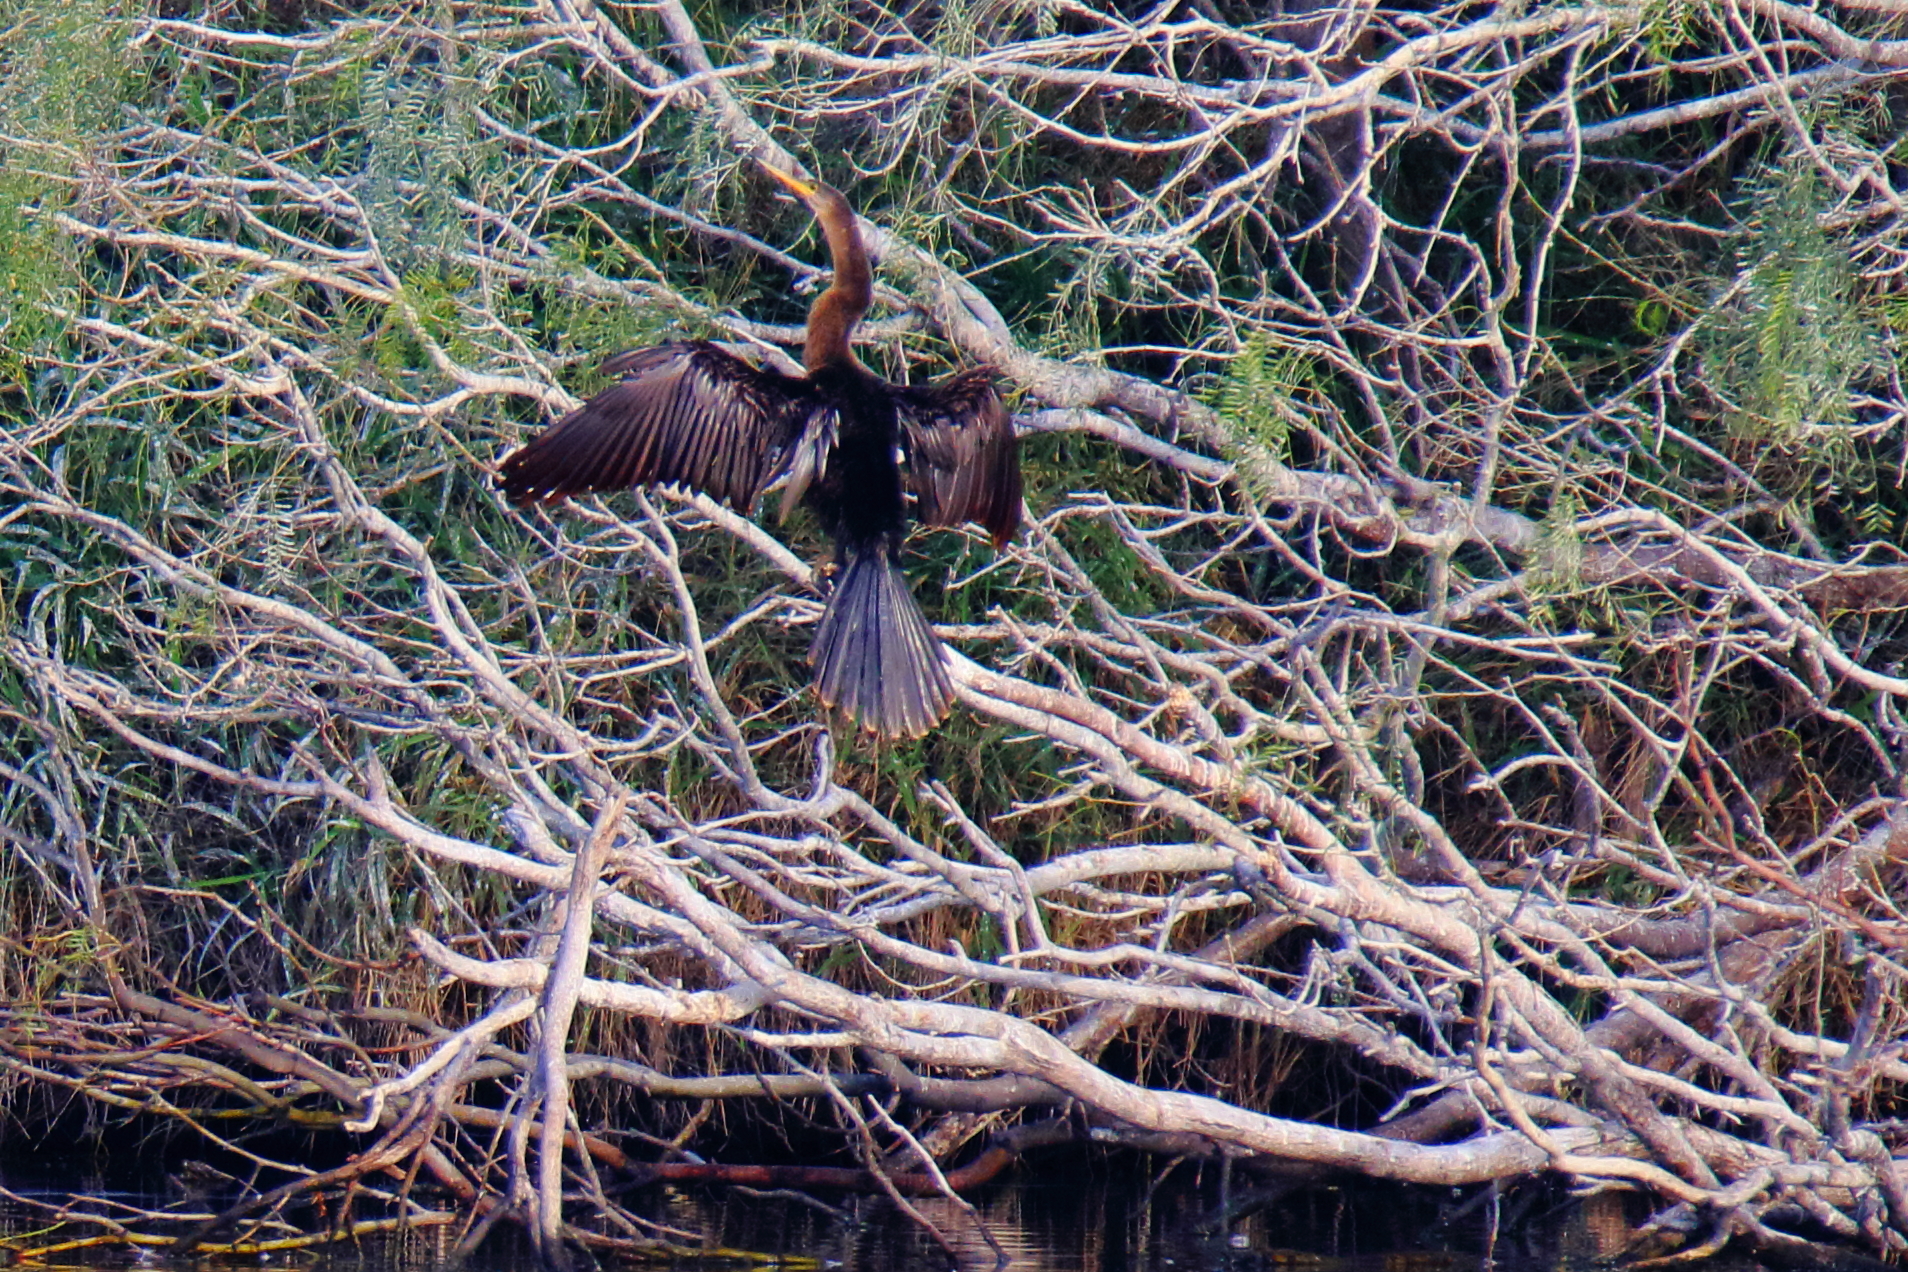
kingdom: Animalia
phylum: Chordata
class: Aves
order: Suliformes
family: Anhingidae
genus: Anhinga
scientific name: Anhinga anhinga
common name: Anhinga
